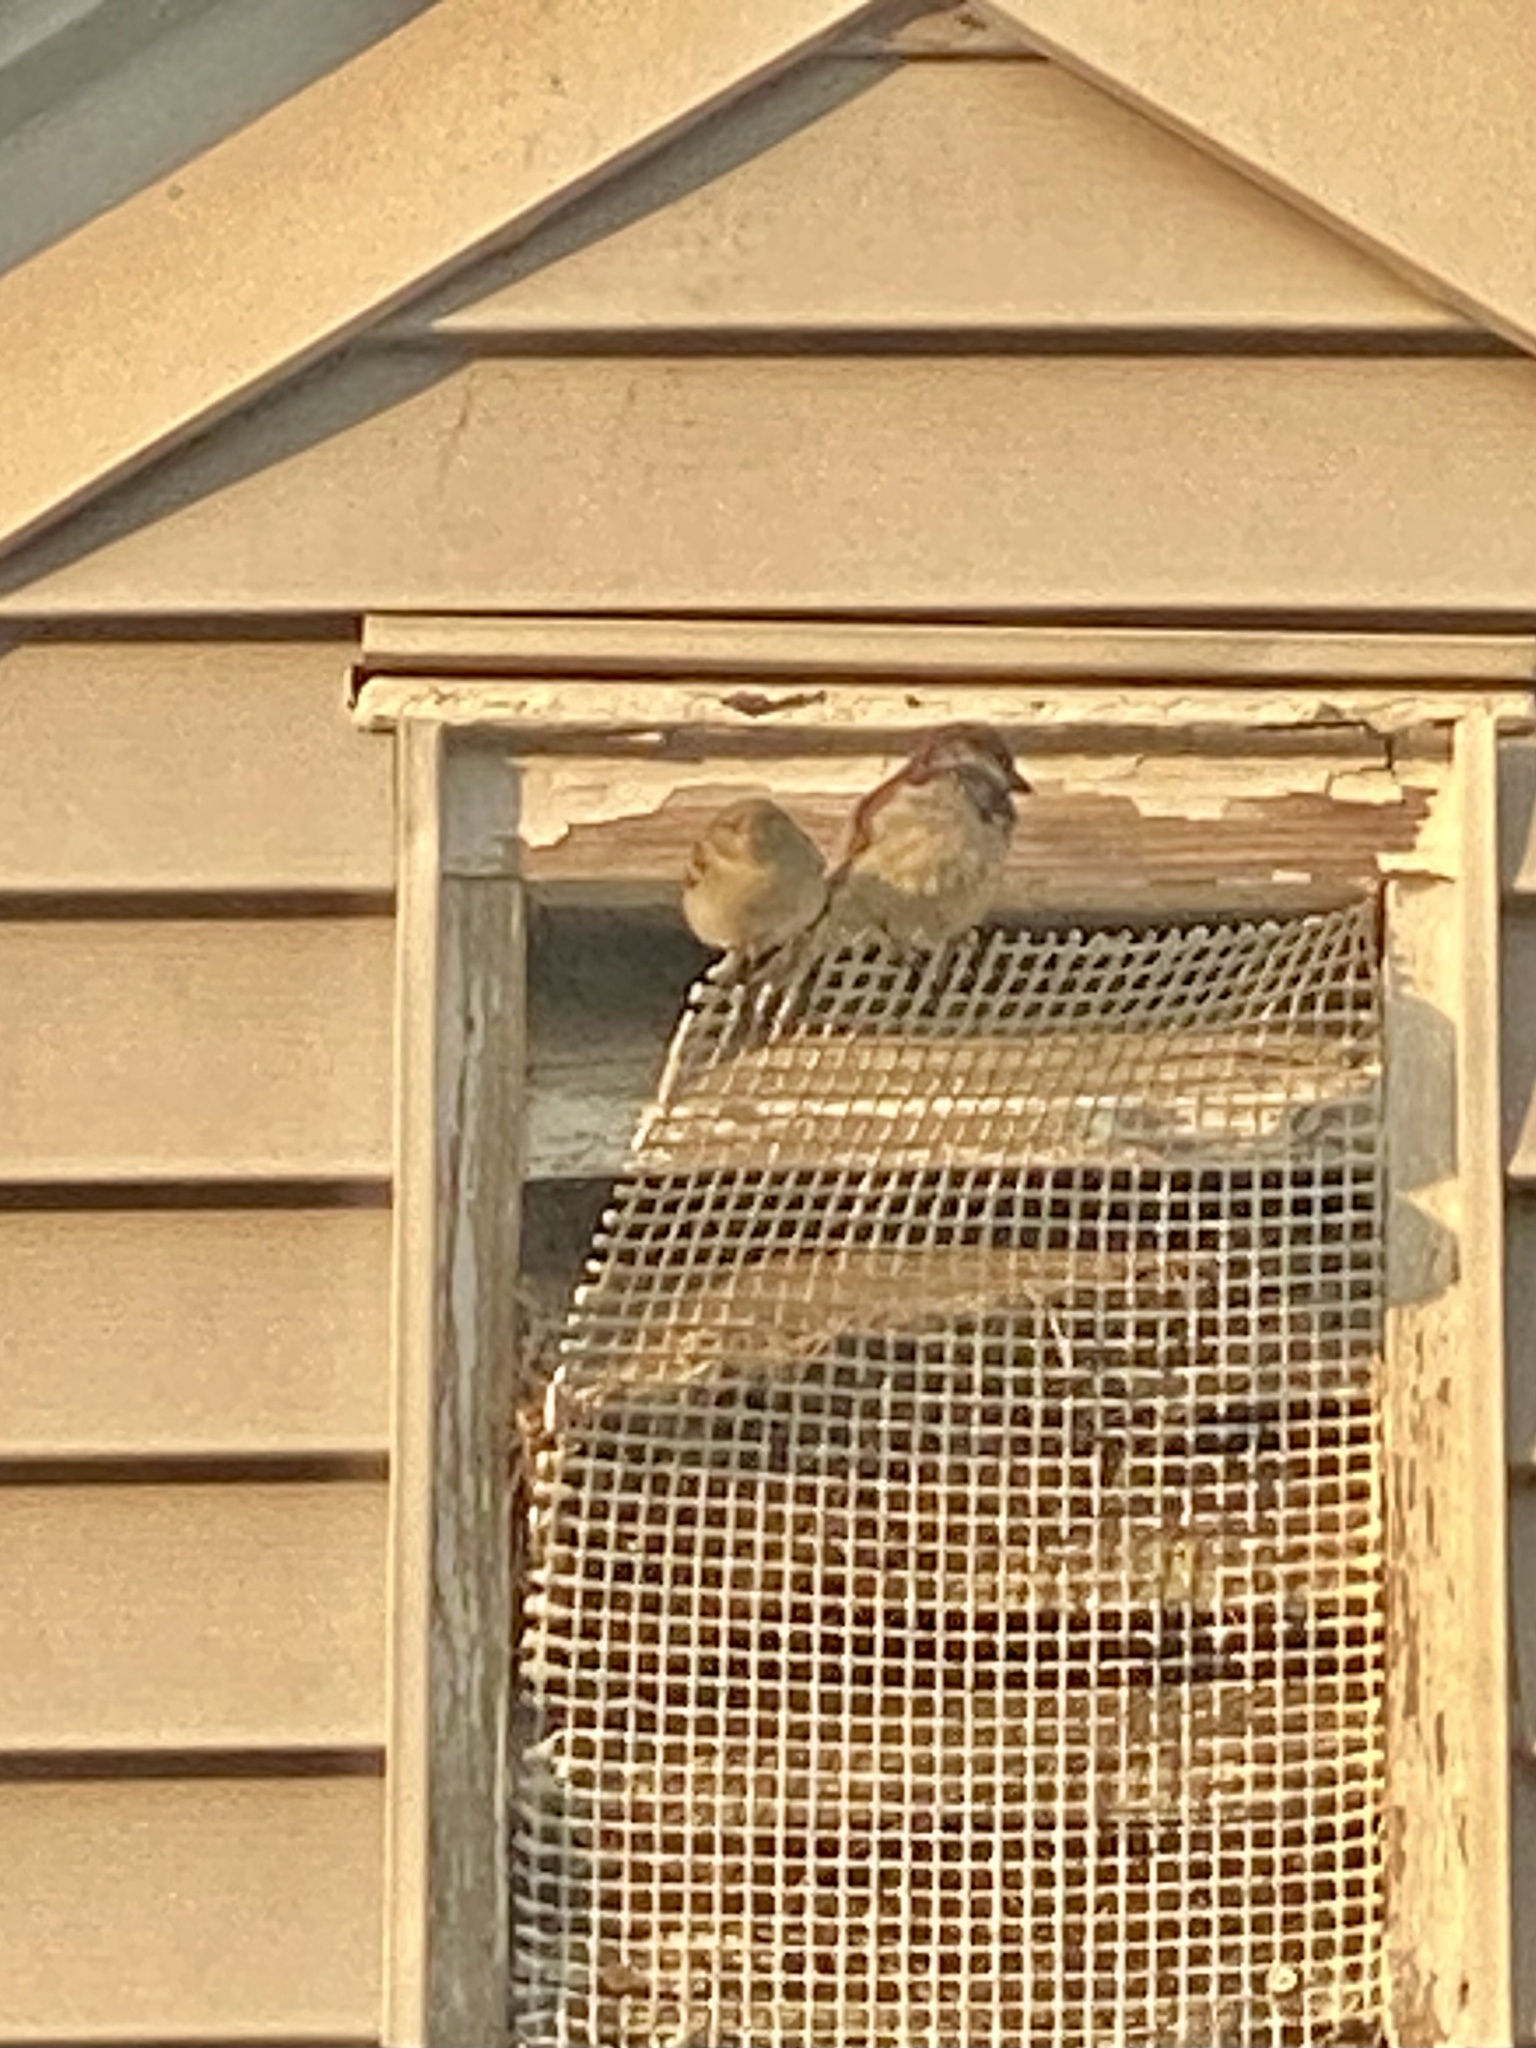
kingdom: Animalia
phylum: Chordata
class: Aves
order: Passeriformes
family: Passeridae
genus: Passer
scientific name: Passer domesticus
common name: House sparrow
